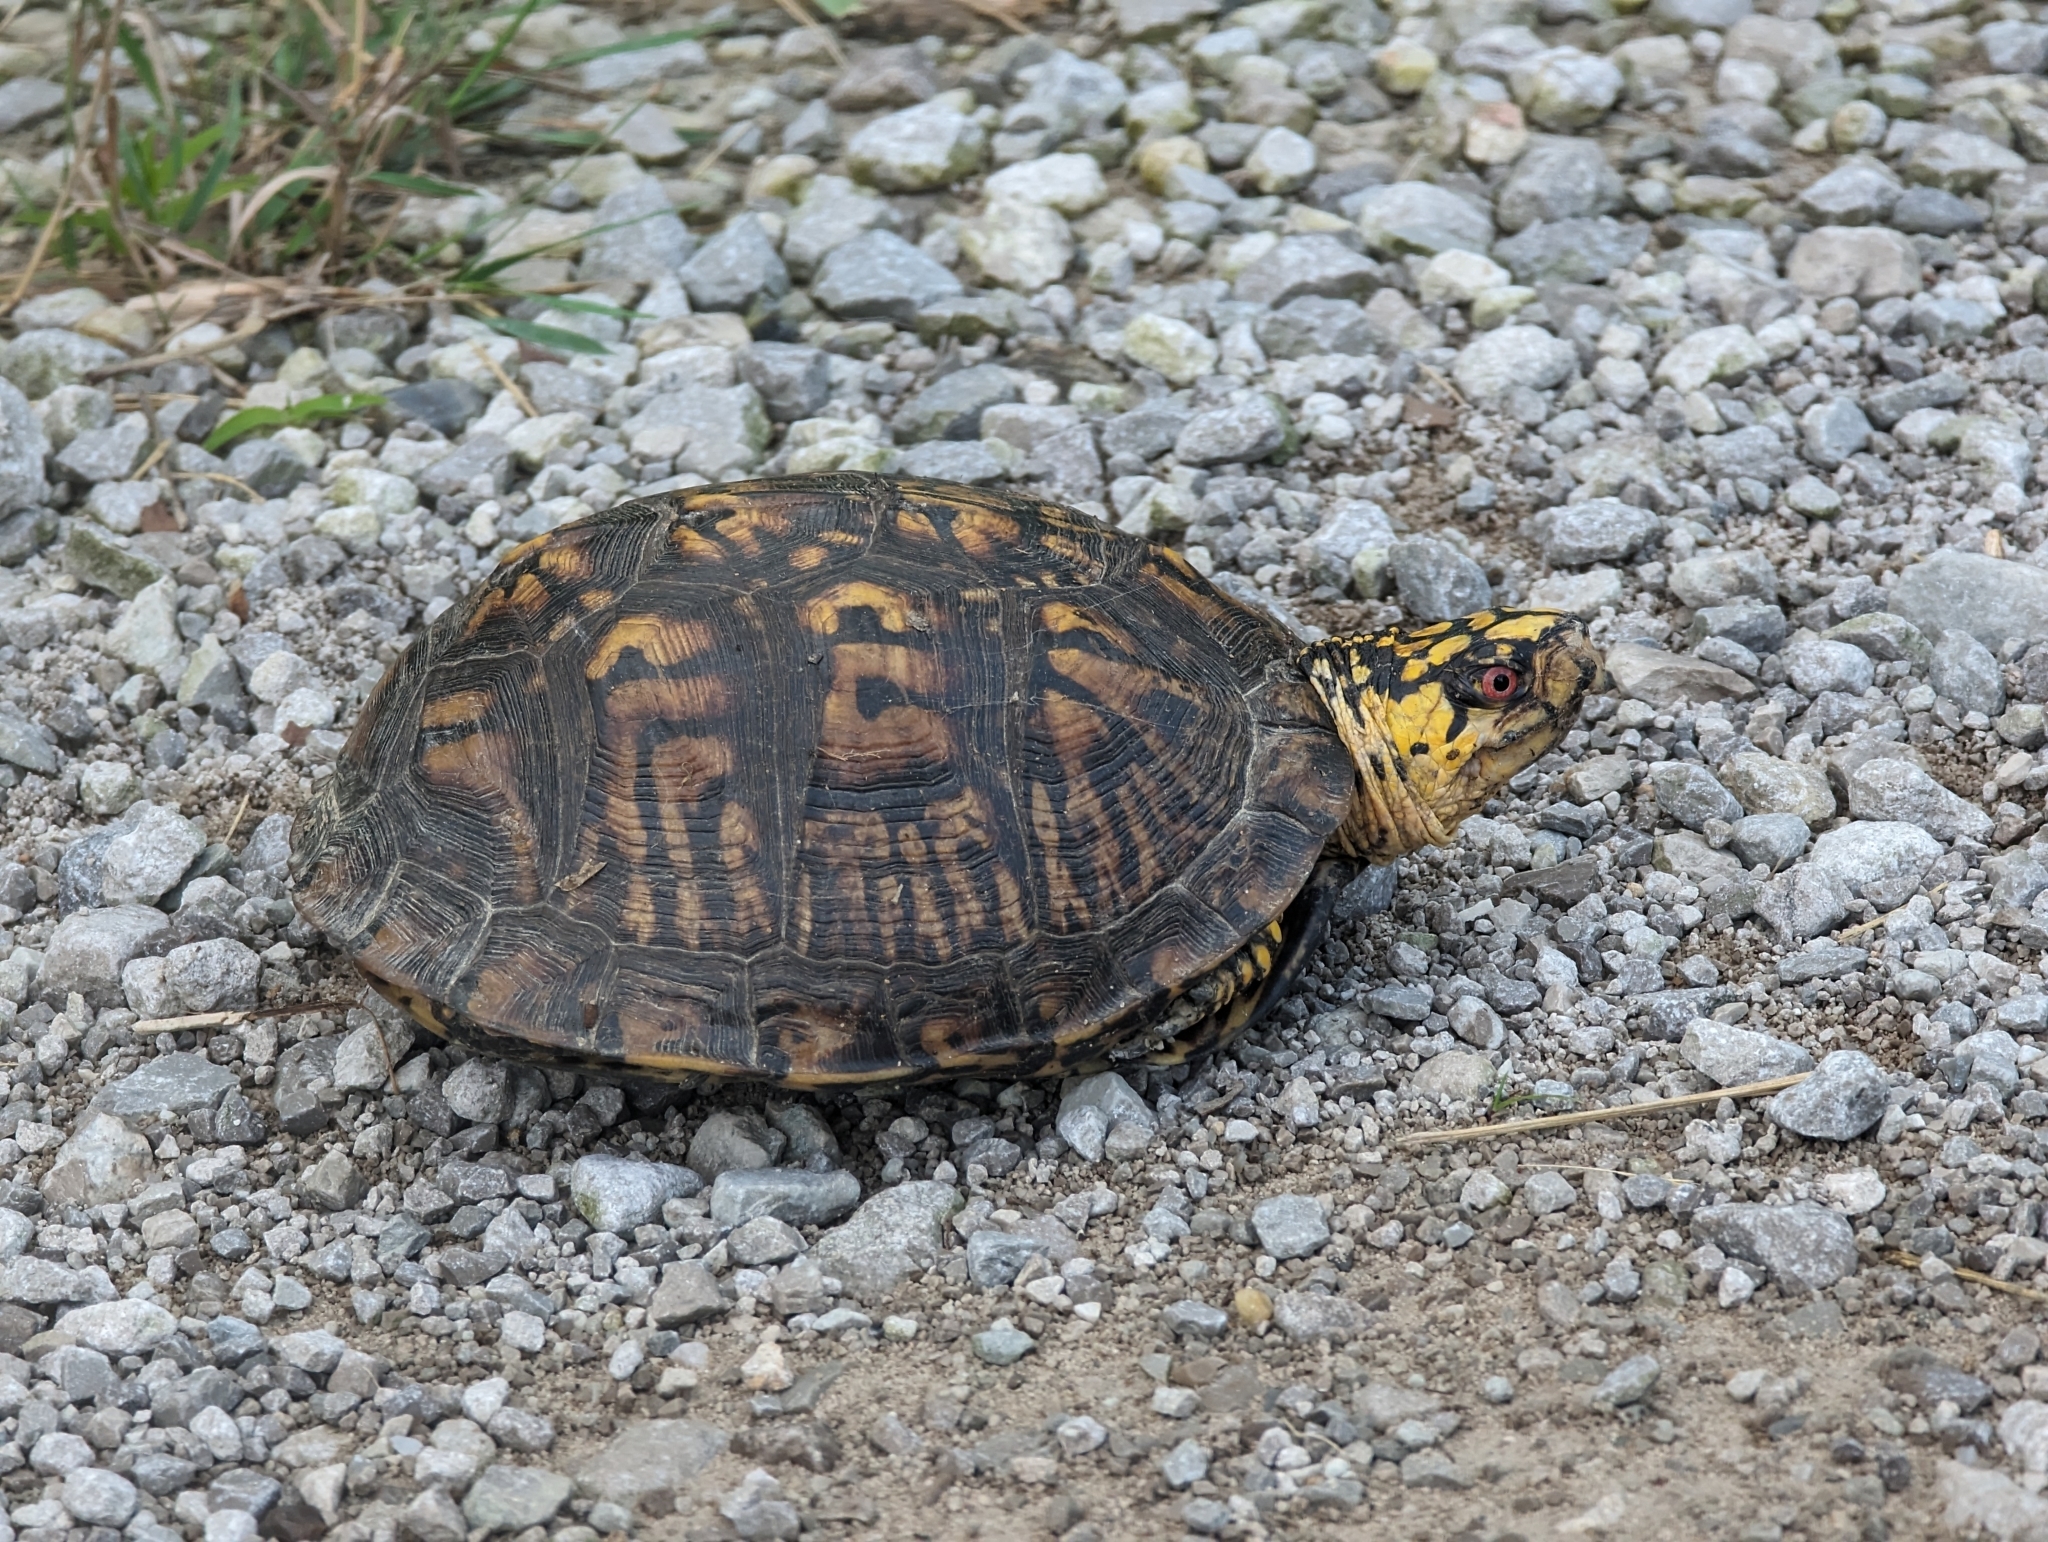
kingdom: Animalia
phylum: Chordata
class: Testudines
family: Emydidae
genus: Terrapene
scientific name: Terrapene carolina
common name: Common box turtle
